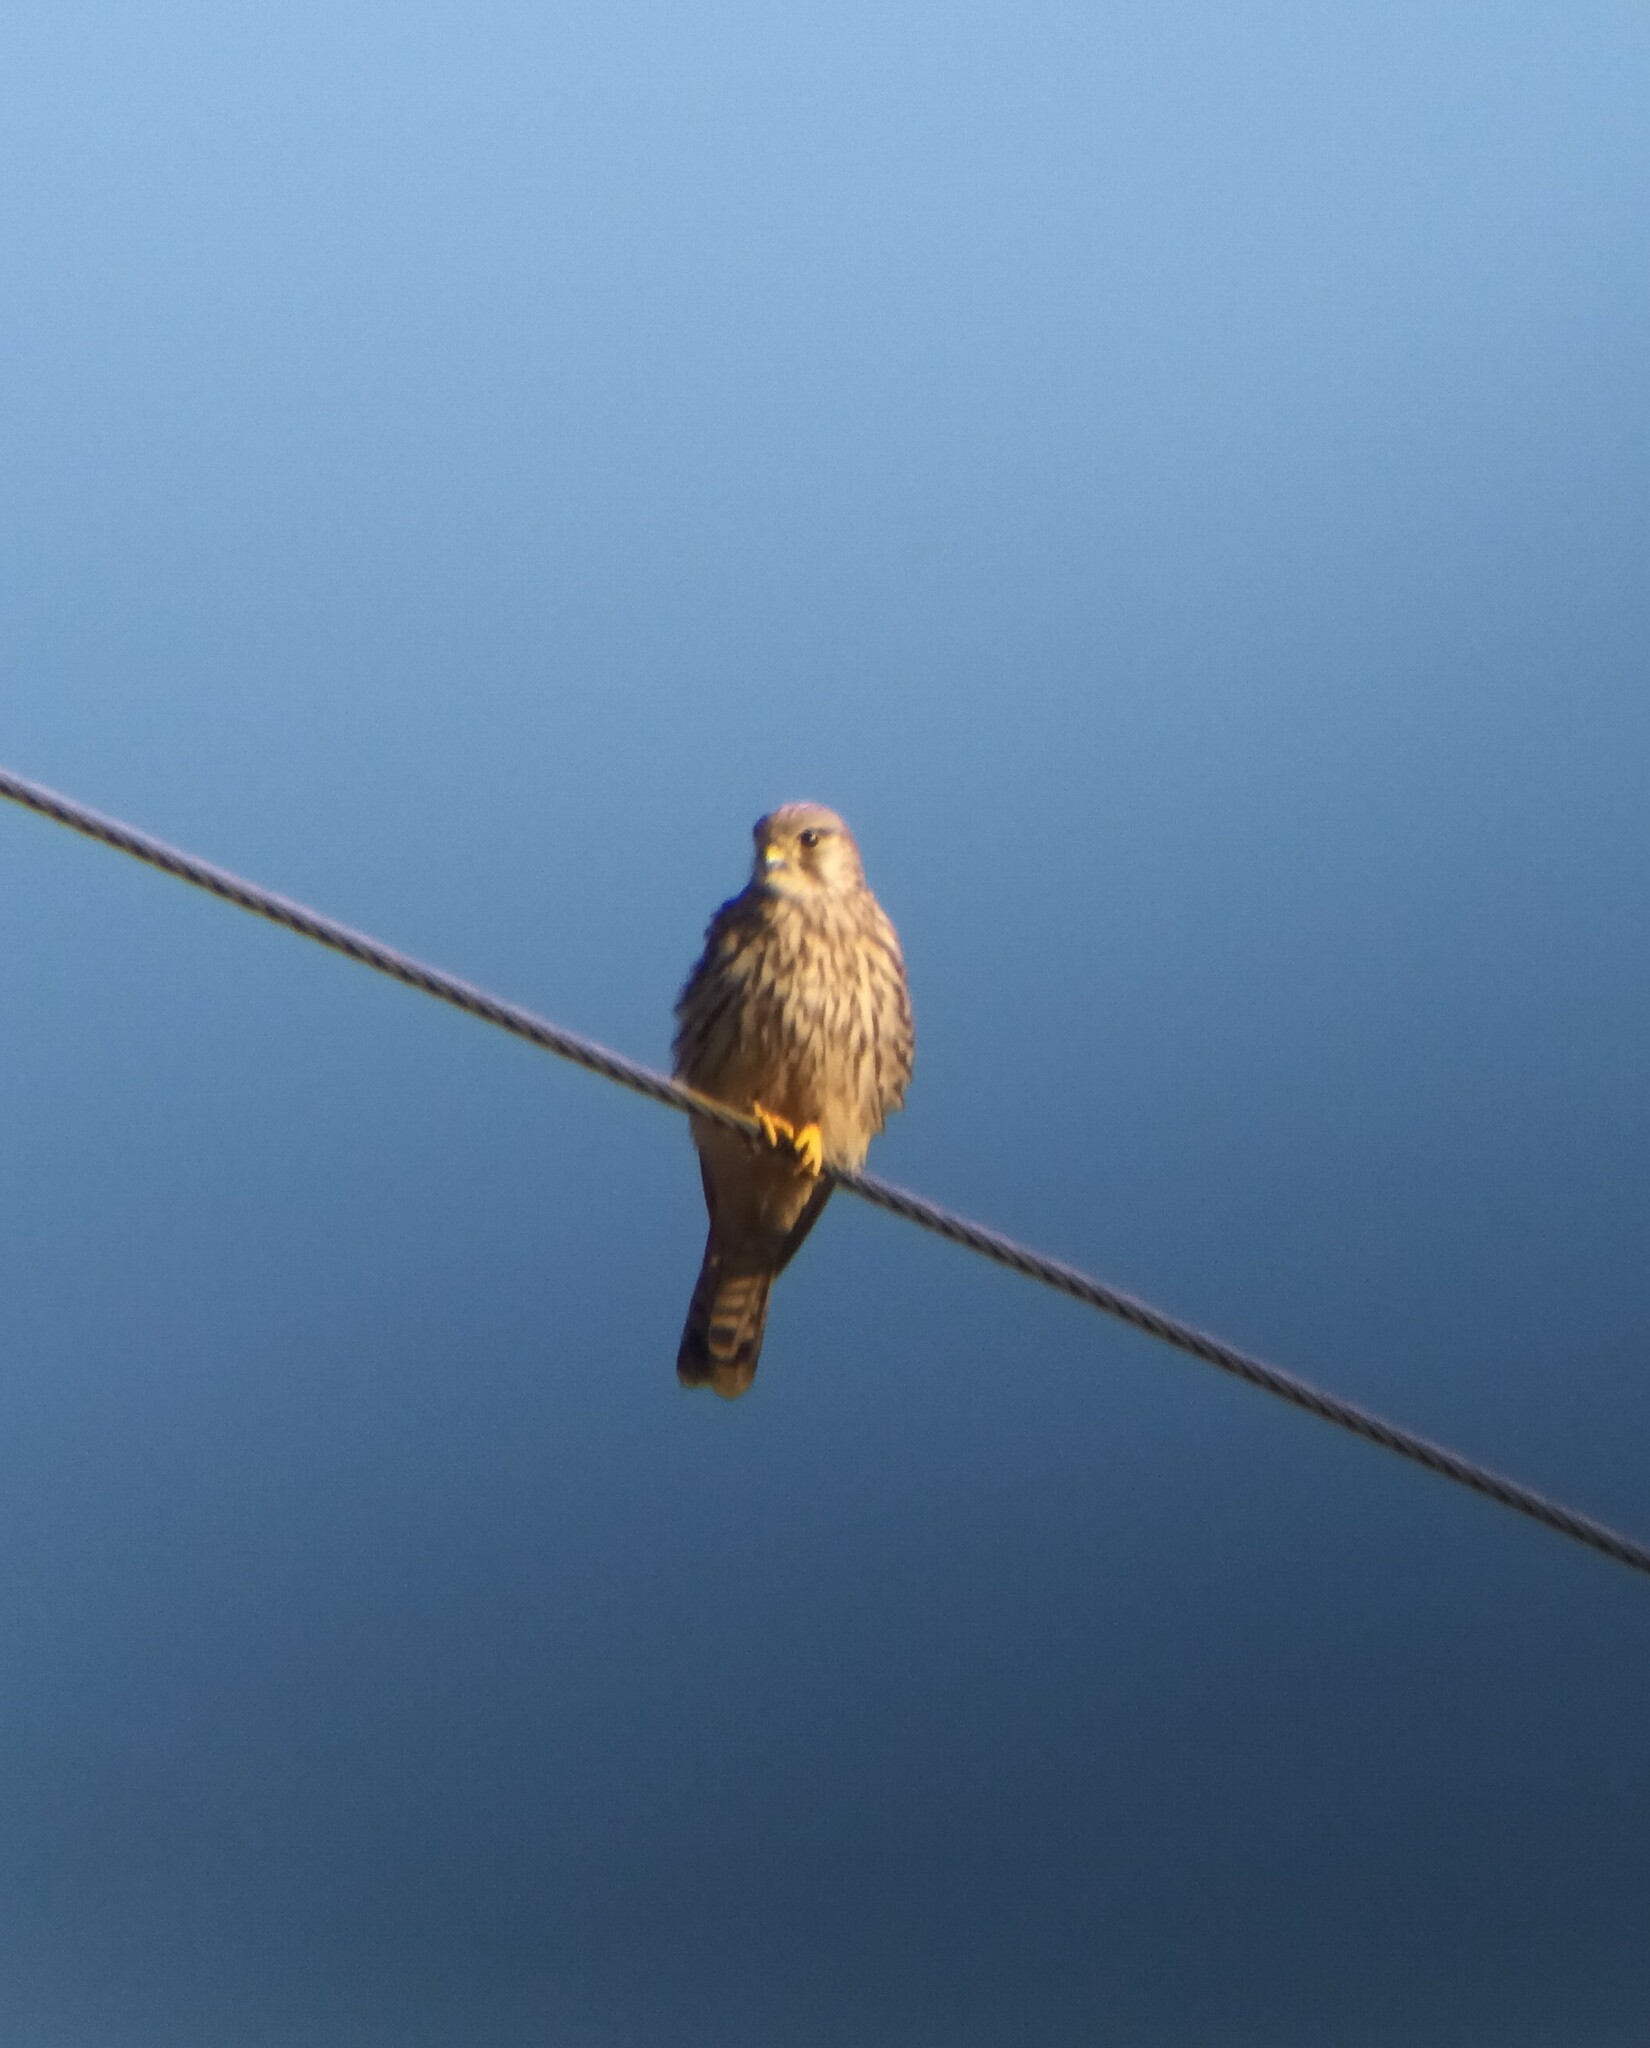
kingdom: Animalia
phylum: Chordata
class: Aves
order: Falconiformes
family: Falconidae
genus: Falco
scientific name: Falco tinnunculus
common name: Common kestrel
